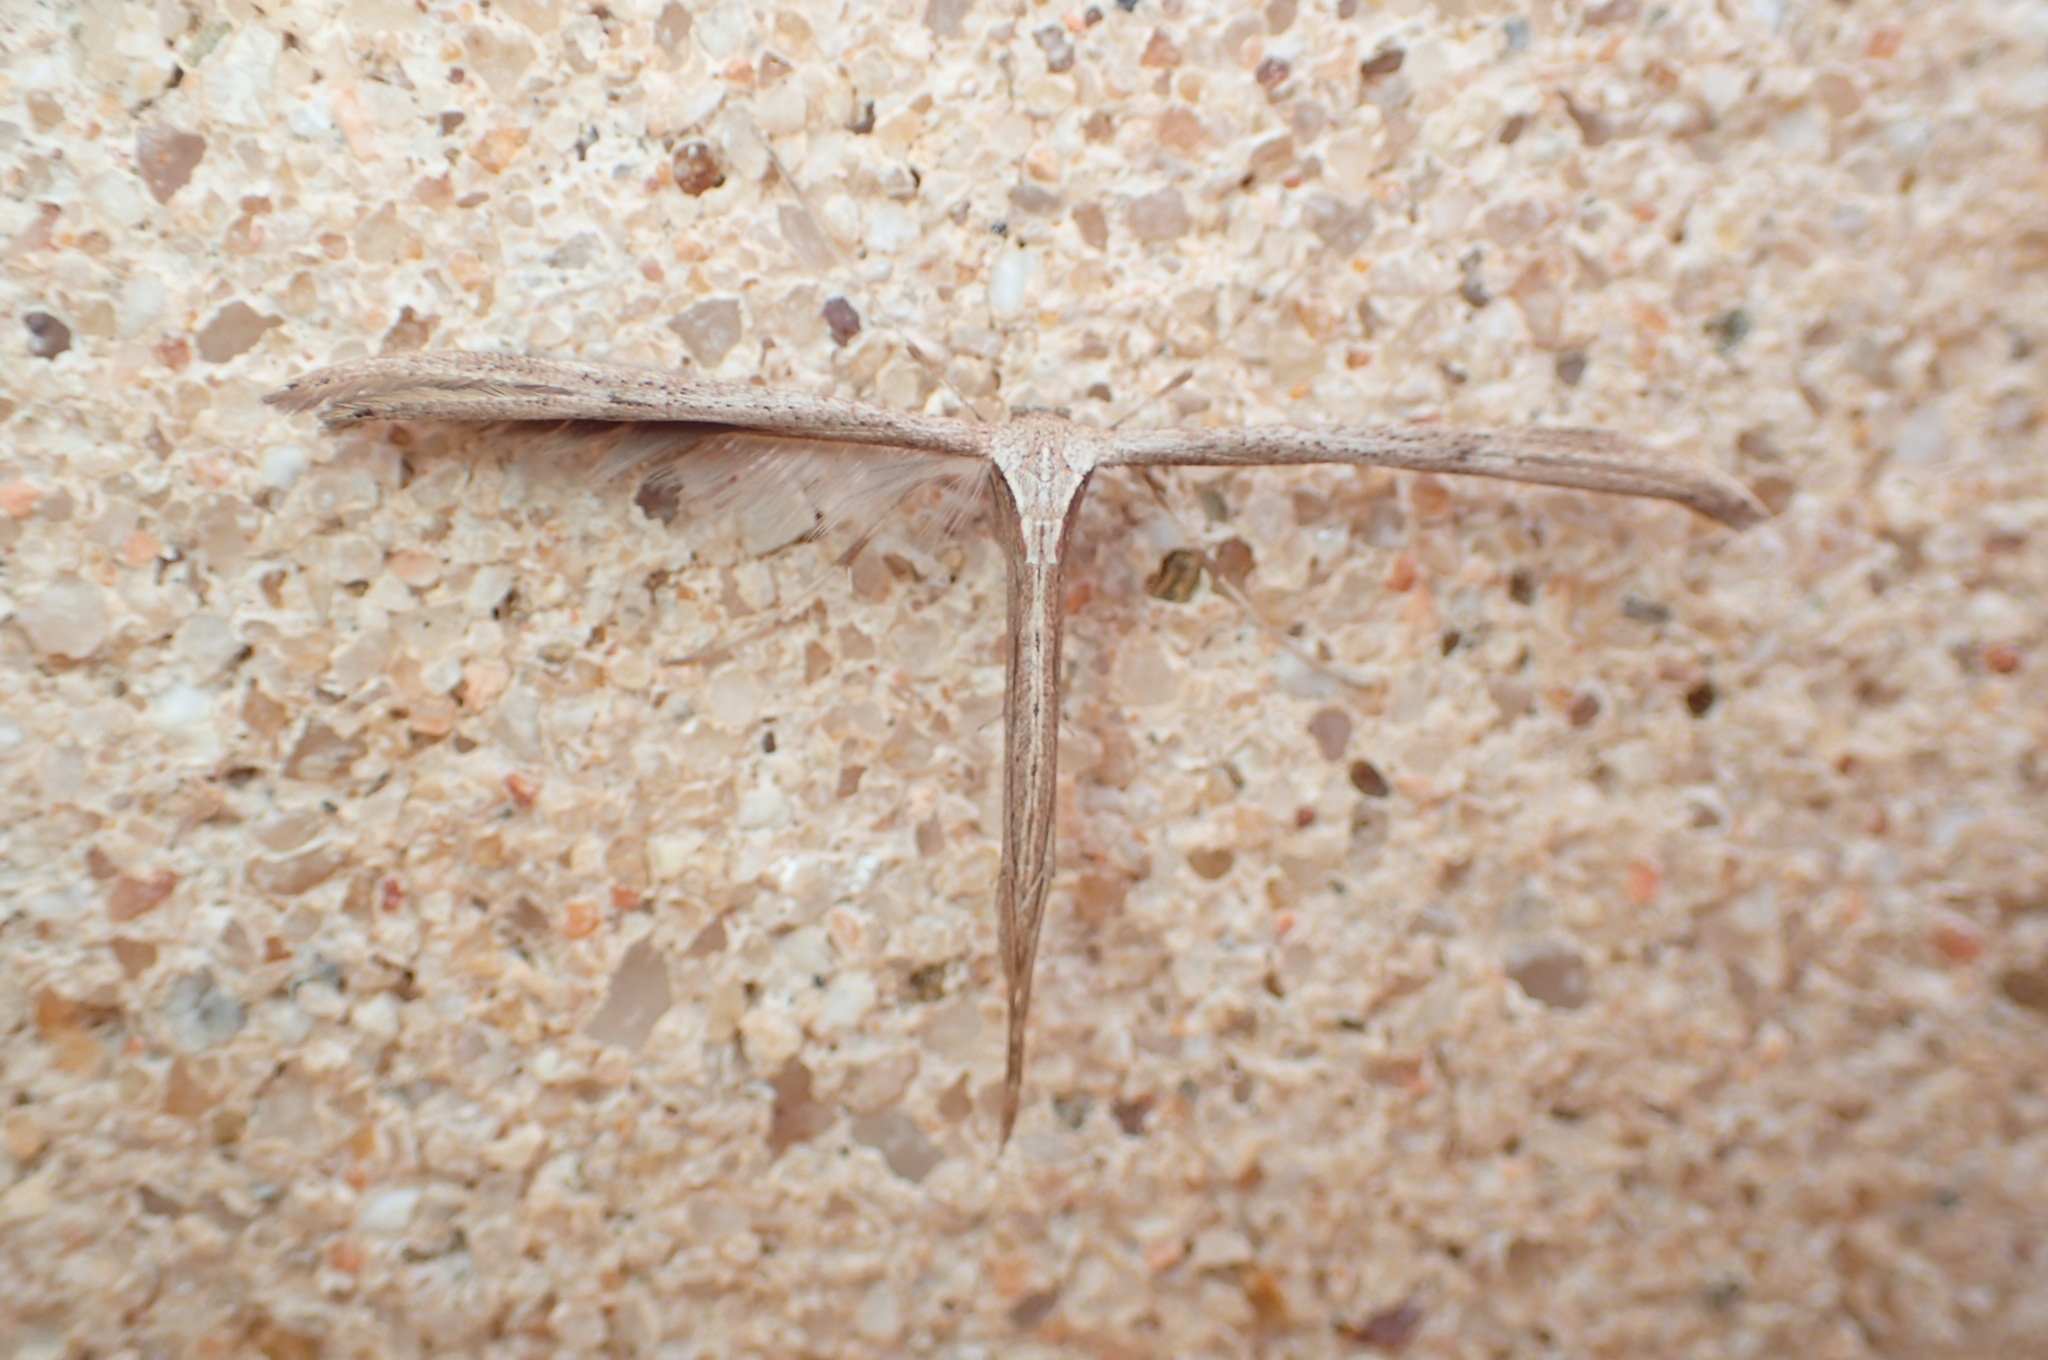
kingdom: Animalia
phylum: Arthropoda
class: Insecta
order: Lepidoptera
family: Pterophoridae
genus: Emmelina
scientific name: Emmelina monodactyla
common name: Common plume
